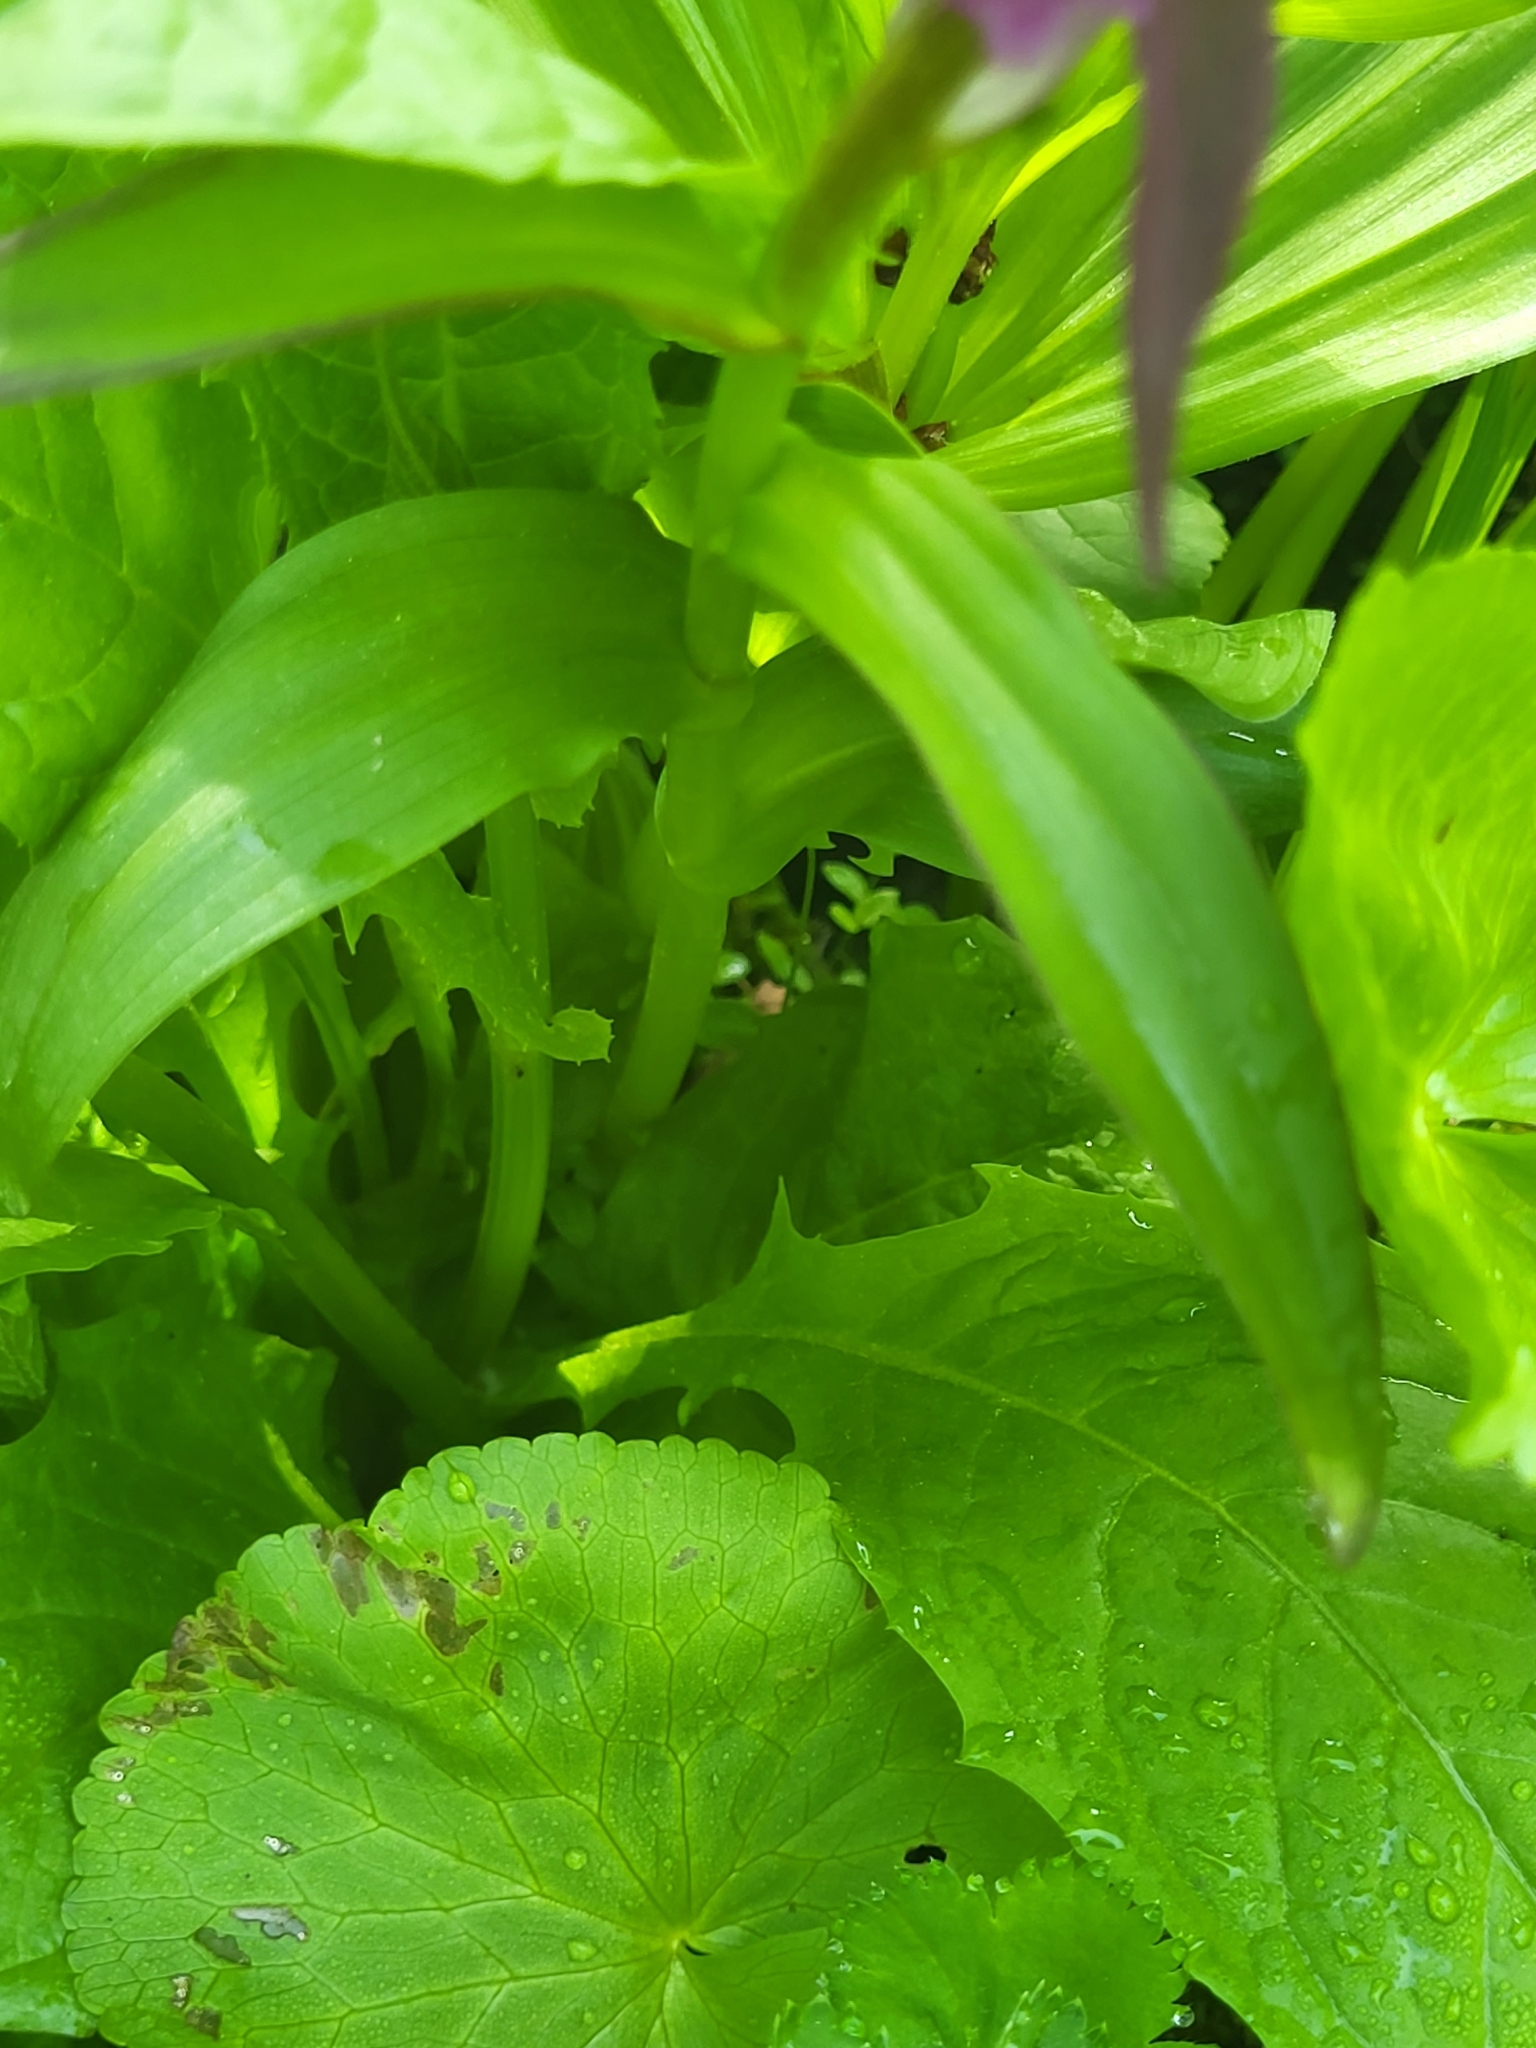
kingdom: Plantae
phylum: Tracheophyta
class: Liliopsida
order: Asparagales
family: Orchidaceae
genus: Dactylorhiza
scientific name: Dactylorhiza euxina
